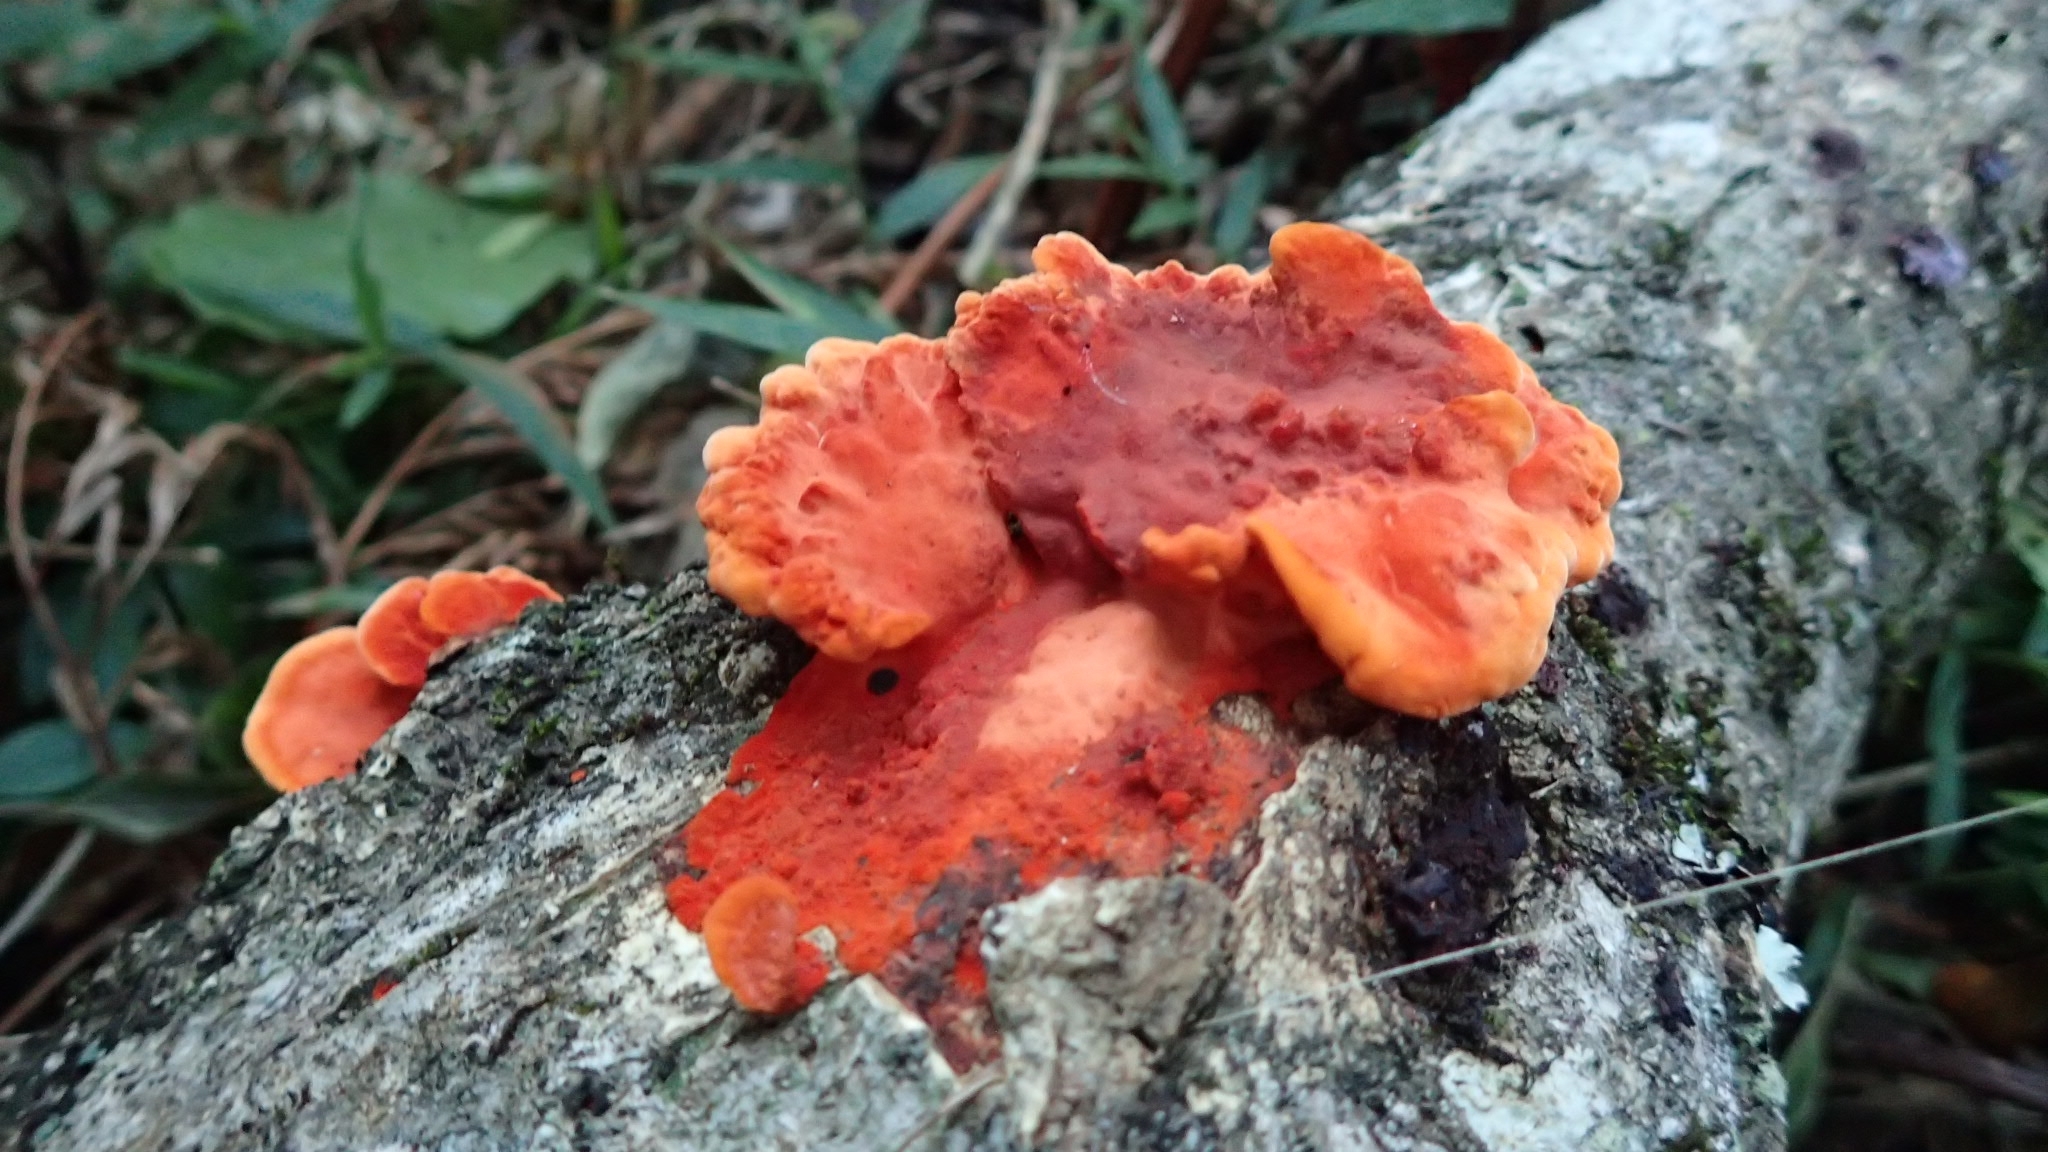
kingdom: Fungi
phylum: Basidiomycota
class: Agaricomycetes
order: Polyporales
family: Polyporaceae
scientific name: Polyporaceae
